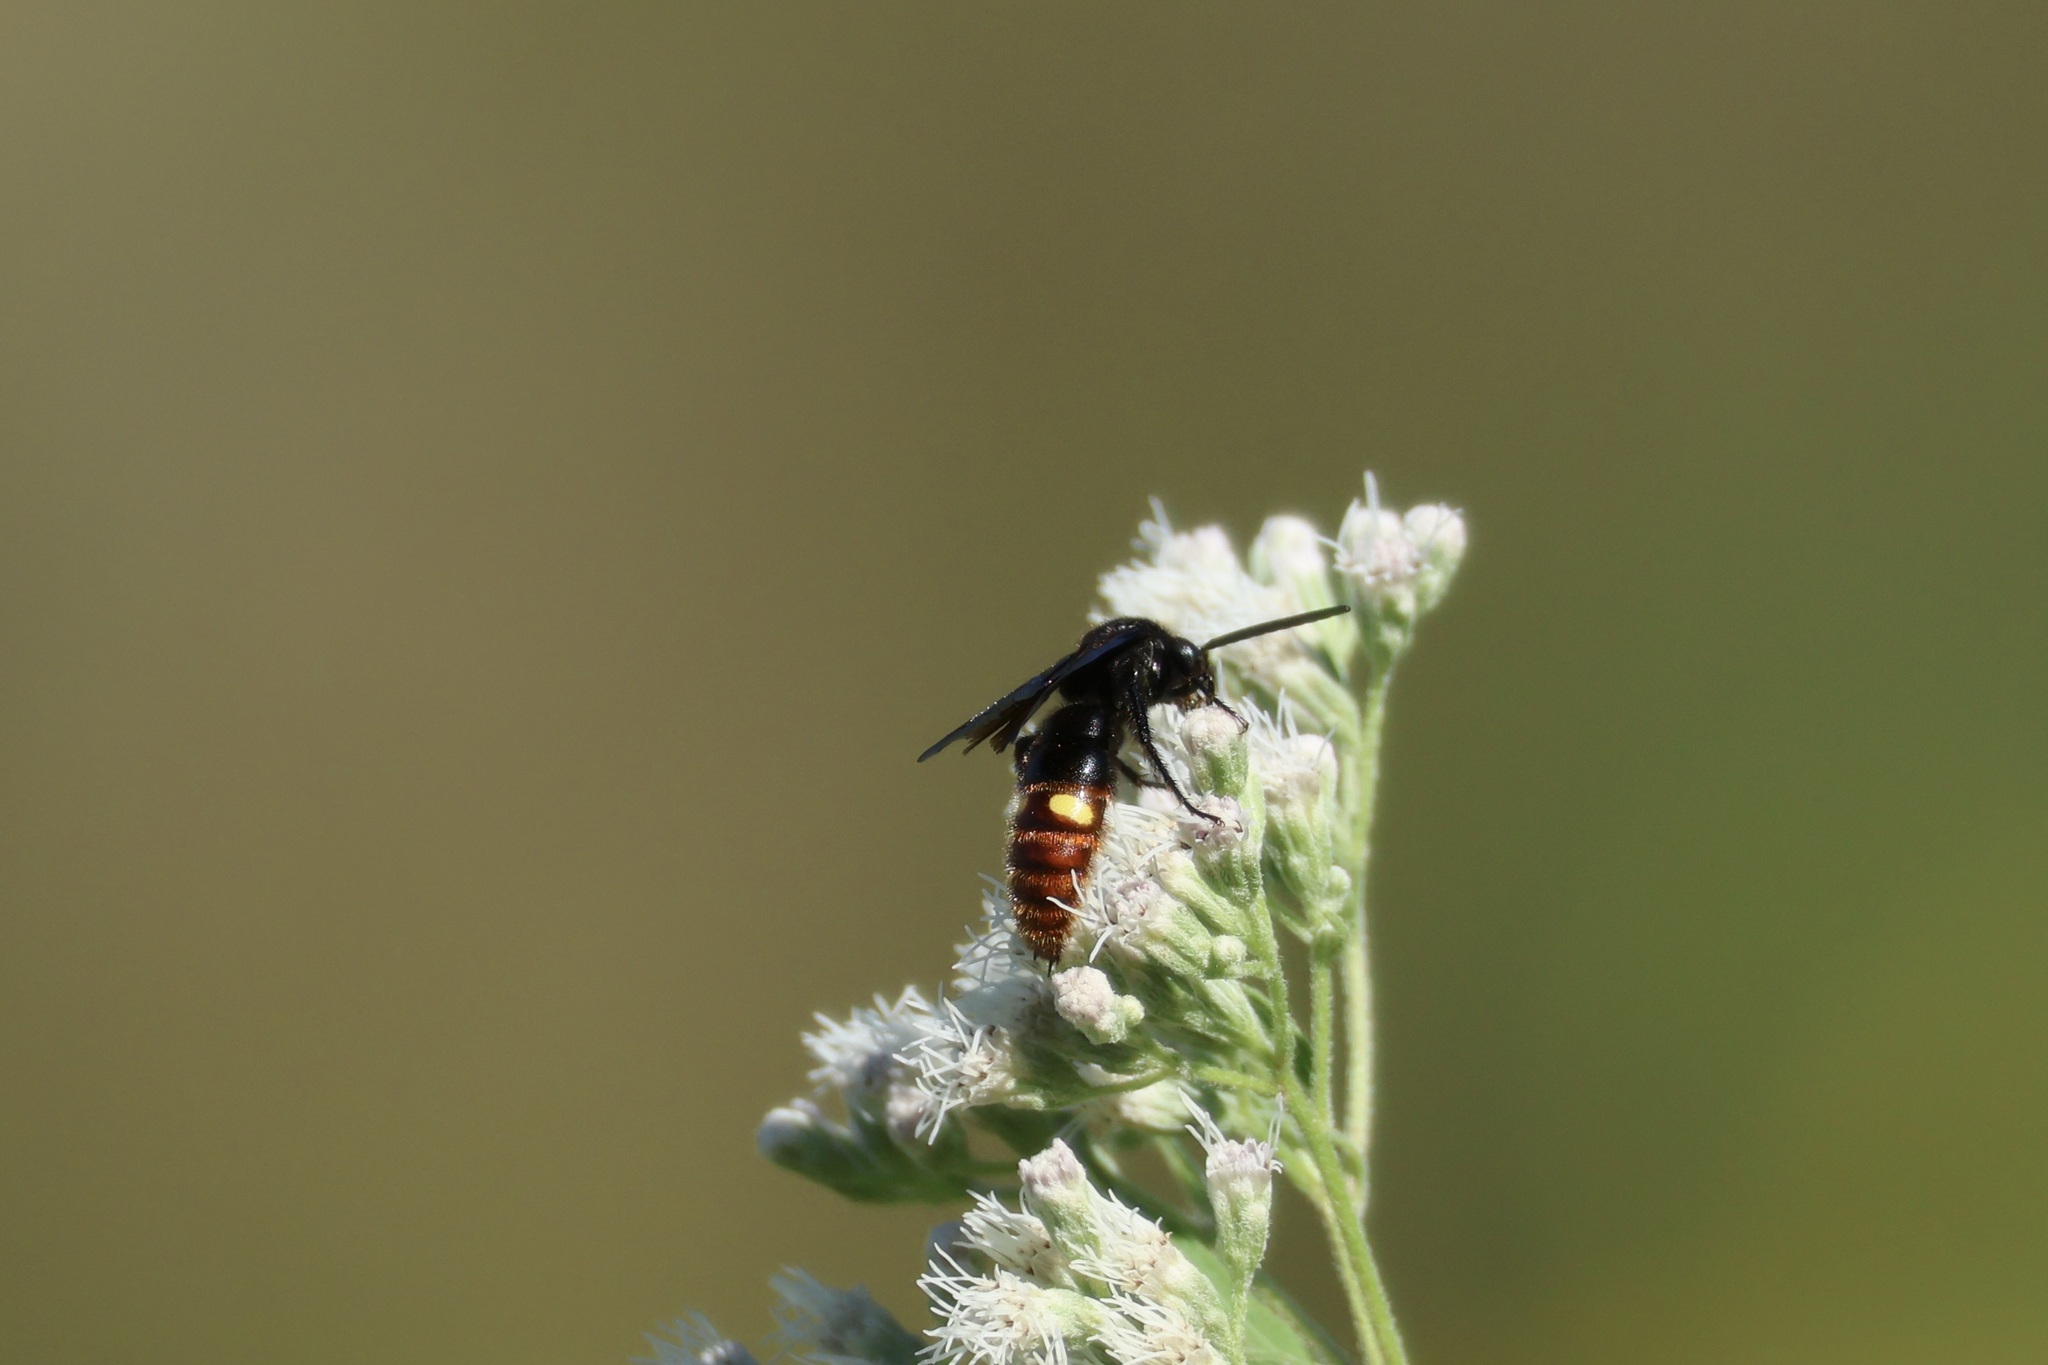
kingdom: Animalia
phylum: Arthropoda
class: Insecta
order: Hymenoptera
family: Scoliidae
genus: Scolia
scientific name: Scolia dubia
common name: Blue-winged scoliid wasp
